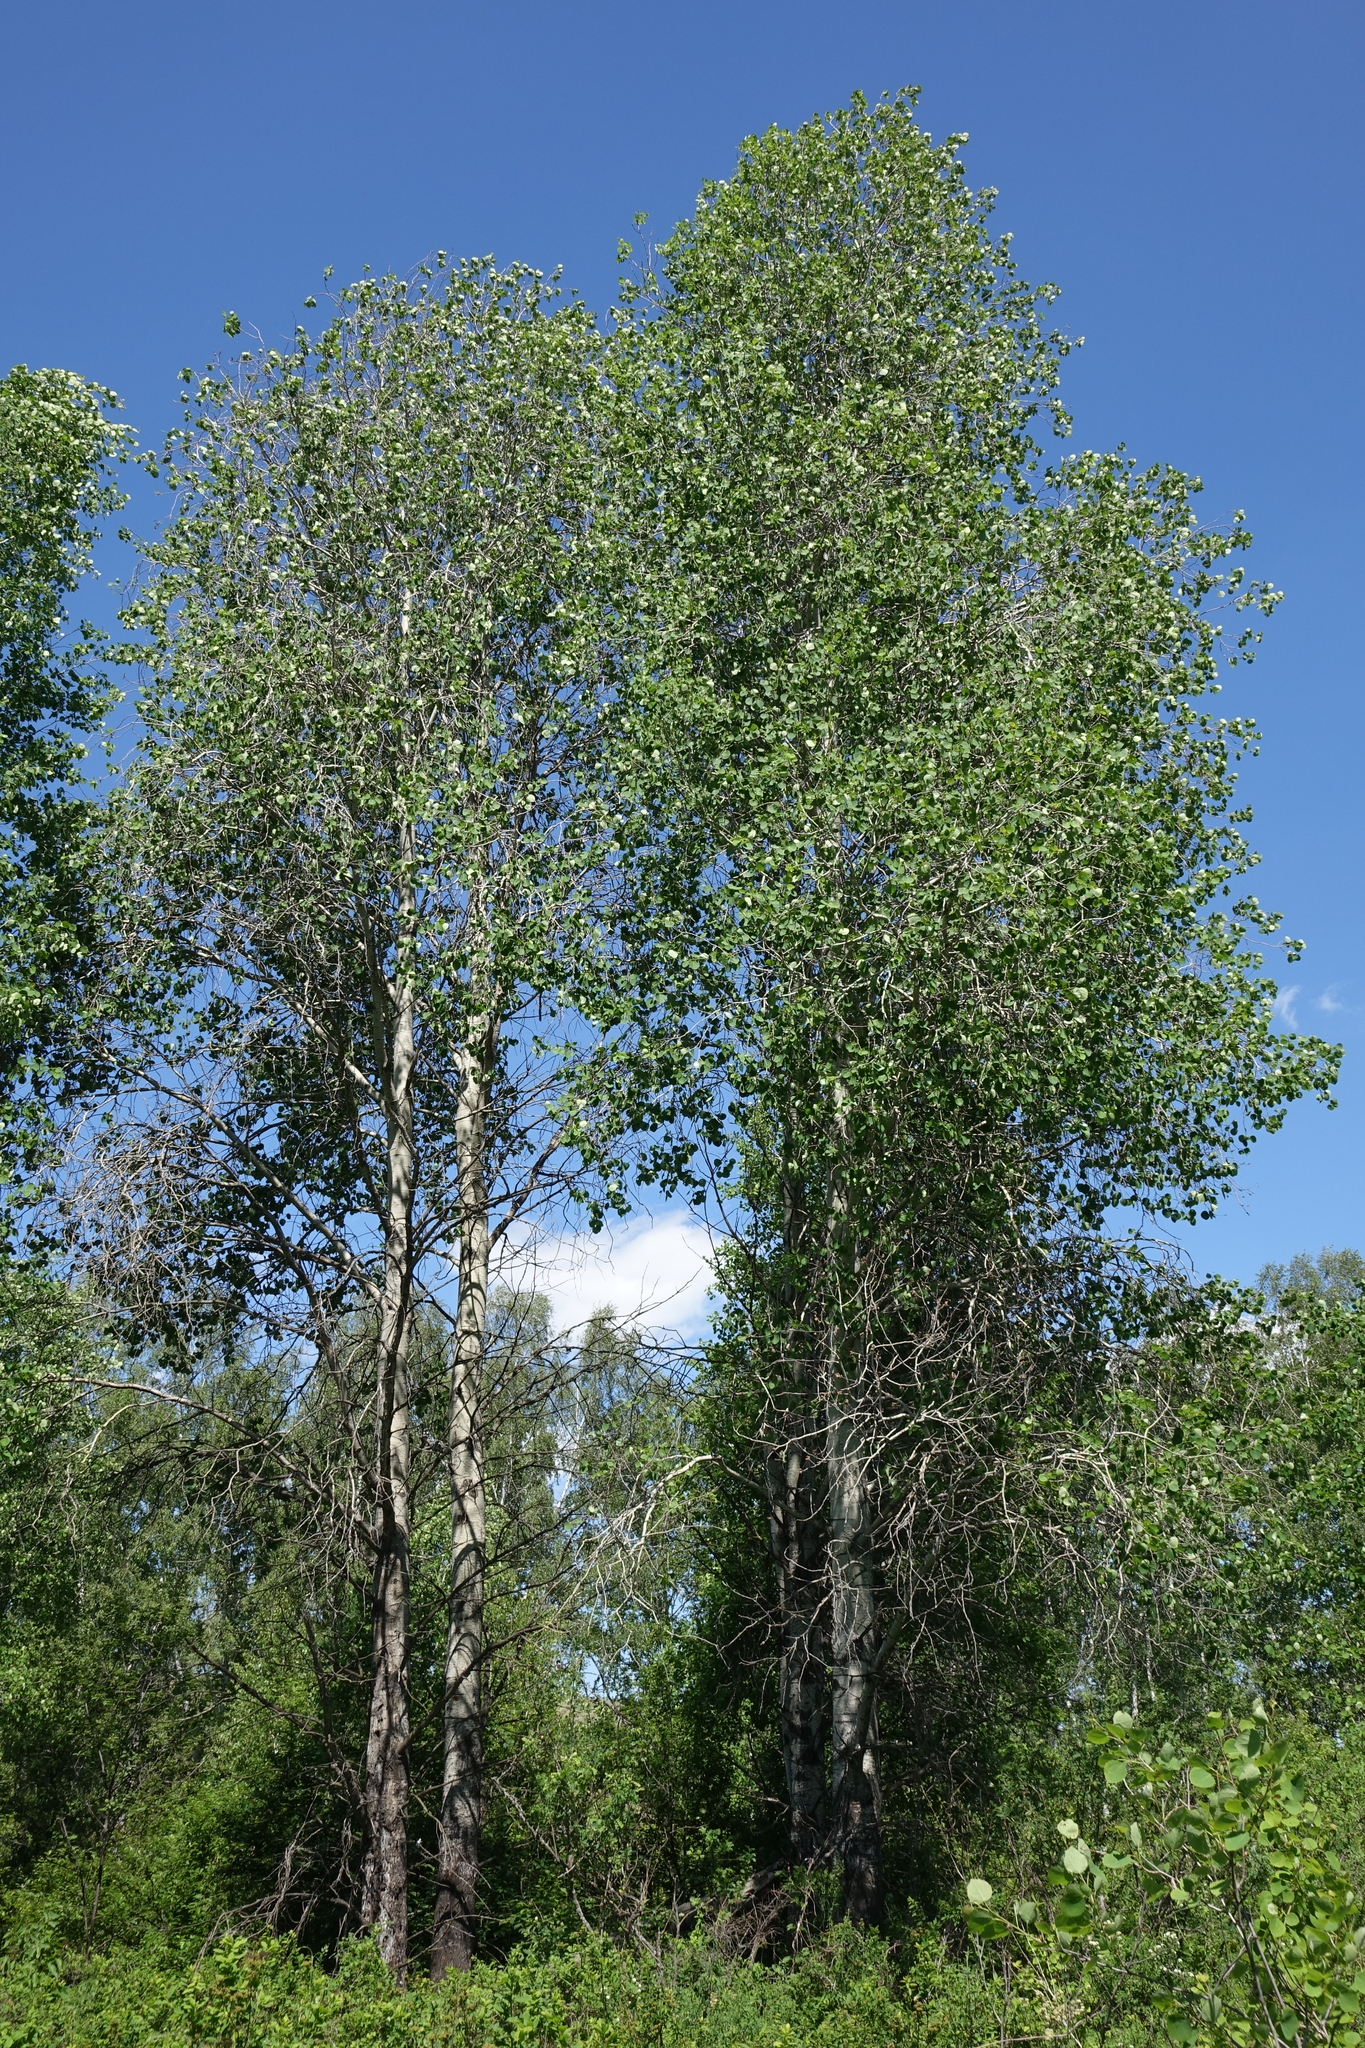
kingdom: Plantae
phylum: Tracheophyta
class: Magnoliopsida
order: Malpighiales
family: Salicaceae
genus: Populus
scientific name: Populus tremula
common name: European aspen
